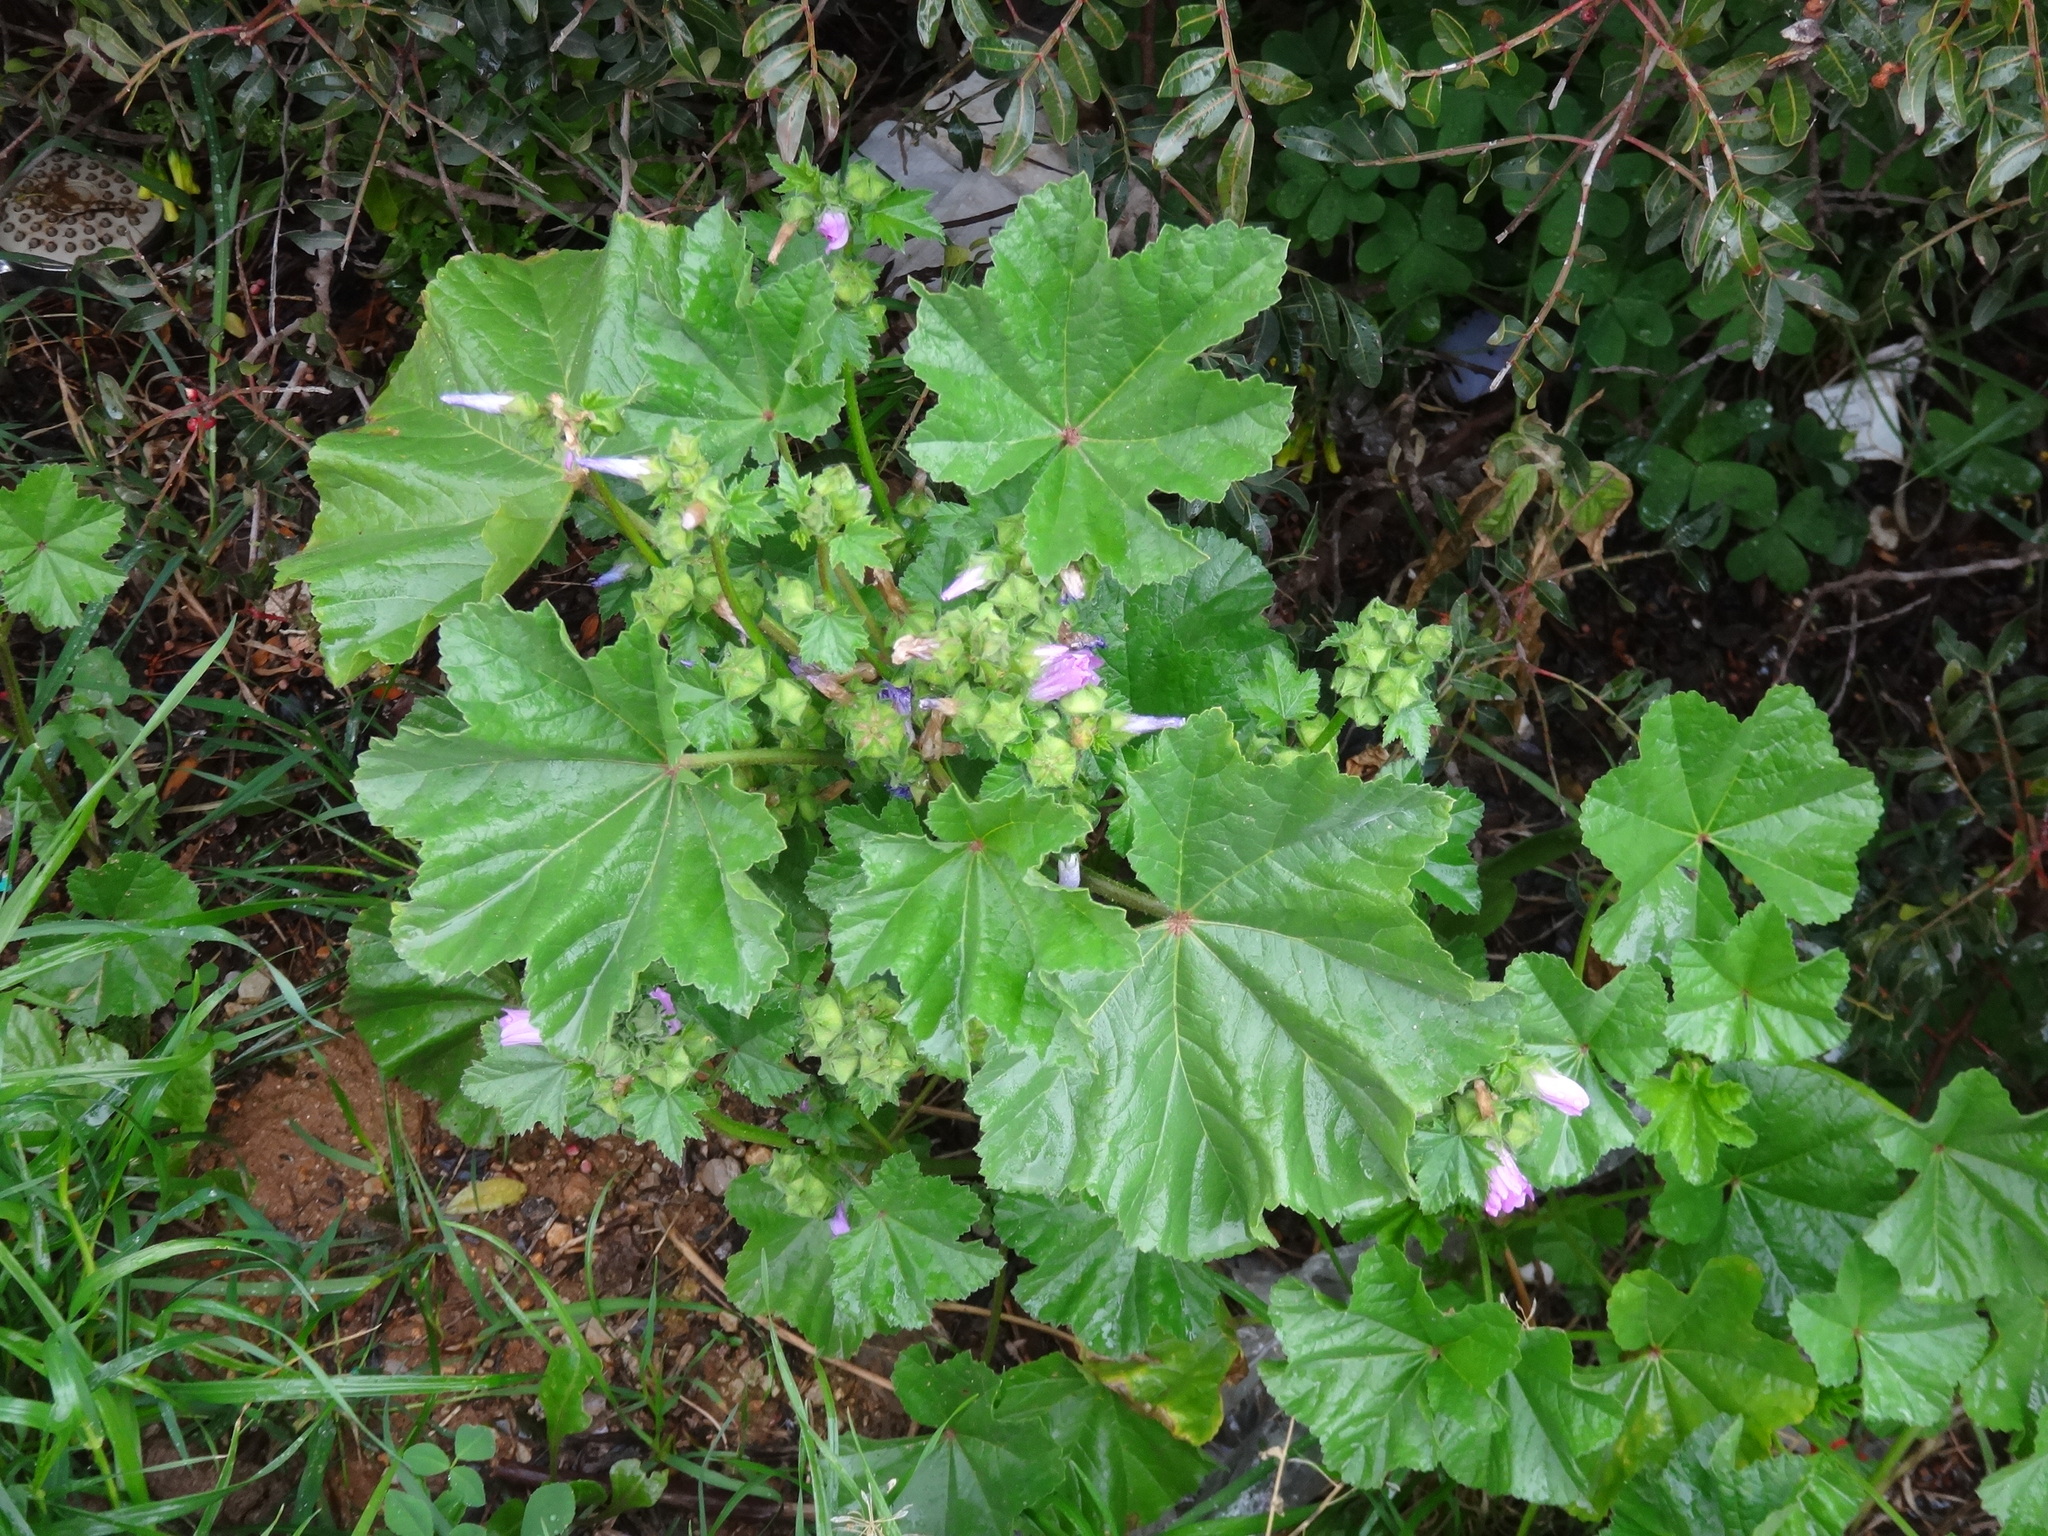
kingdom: Plantae
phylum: Tracheophyta
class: Magnoliopsida
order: Malvales
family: Malvaceae
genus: Malva
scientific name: Malva multiflora
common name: Cheeseweed
